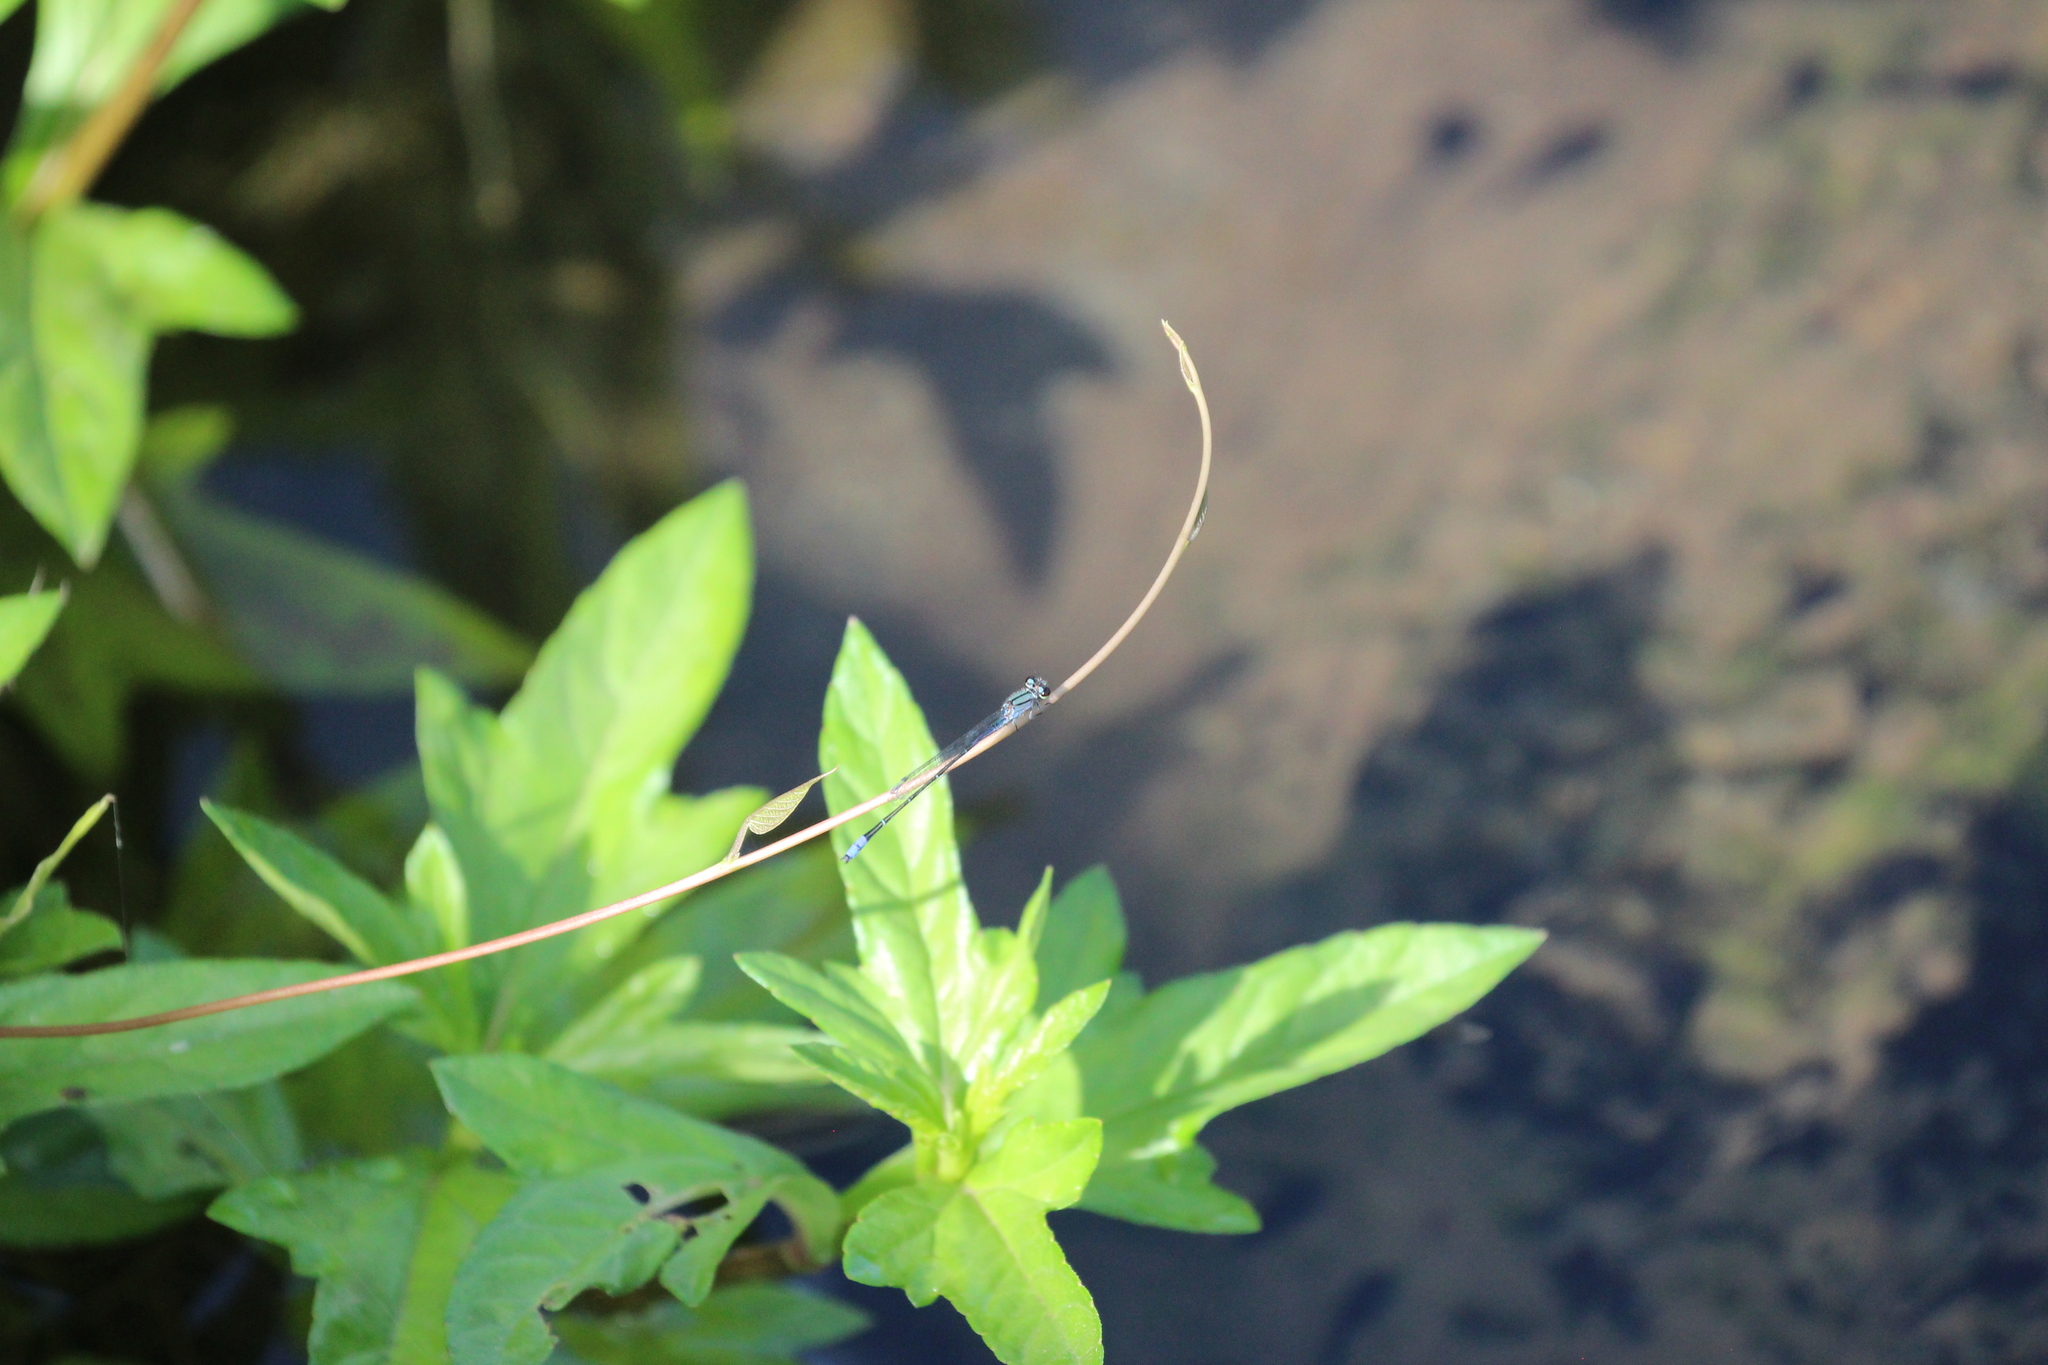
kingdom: Animalia
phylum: Arthropoda
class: Insecta
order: Odonata
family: Coenagrionidae
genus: Enallagma
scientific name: Enallagma novaehispaniae
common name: Neotropical bluet
